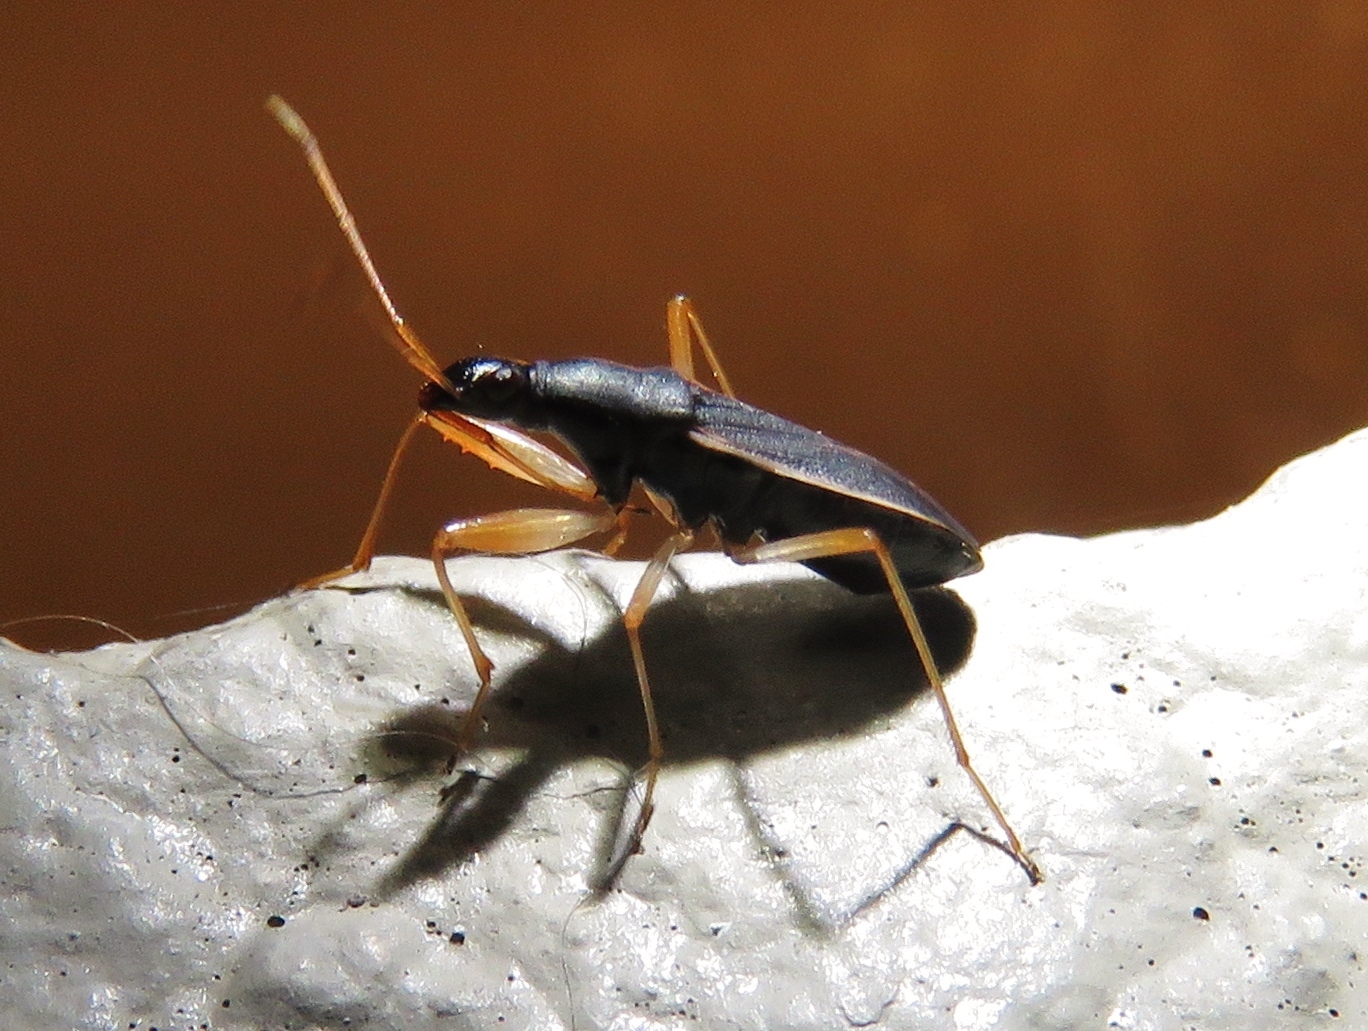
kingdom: Animalia
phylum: Arthropoda
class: Insecta
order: Hemiptera
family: Rhyparochromidae
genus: Cnemodus
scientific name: Cnemodus mavortius
